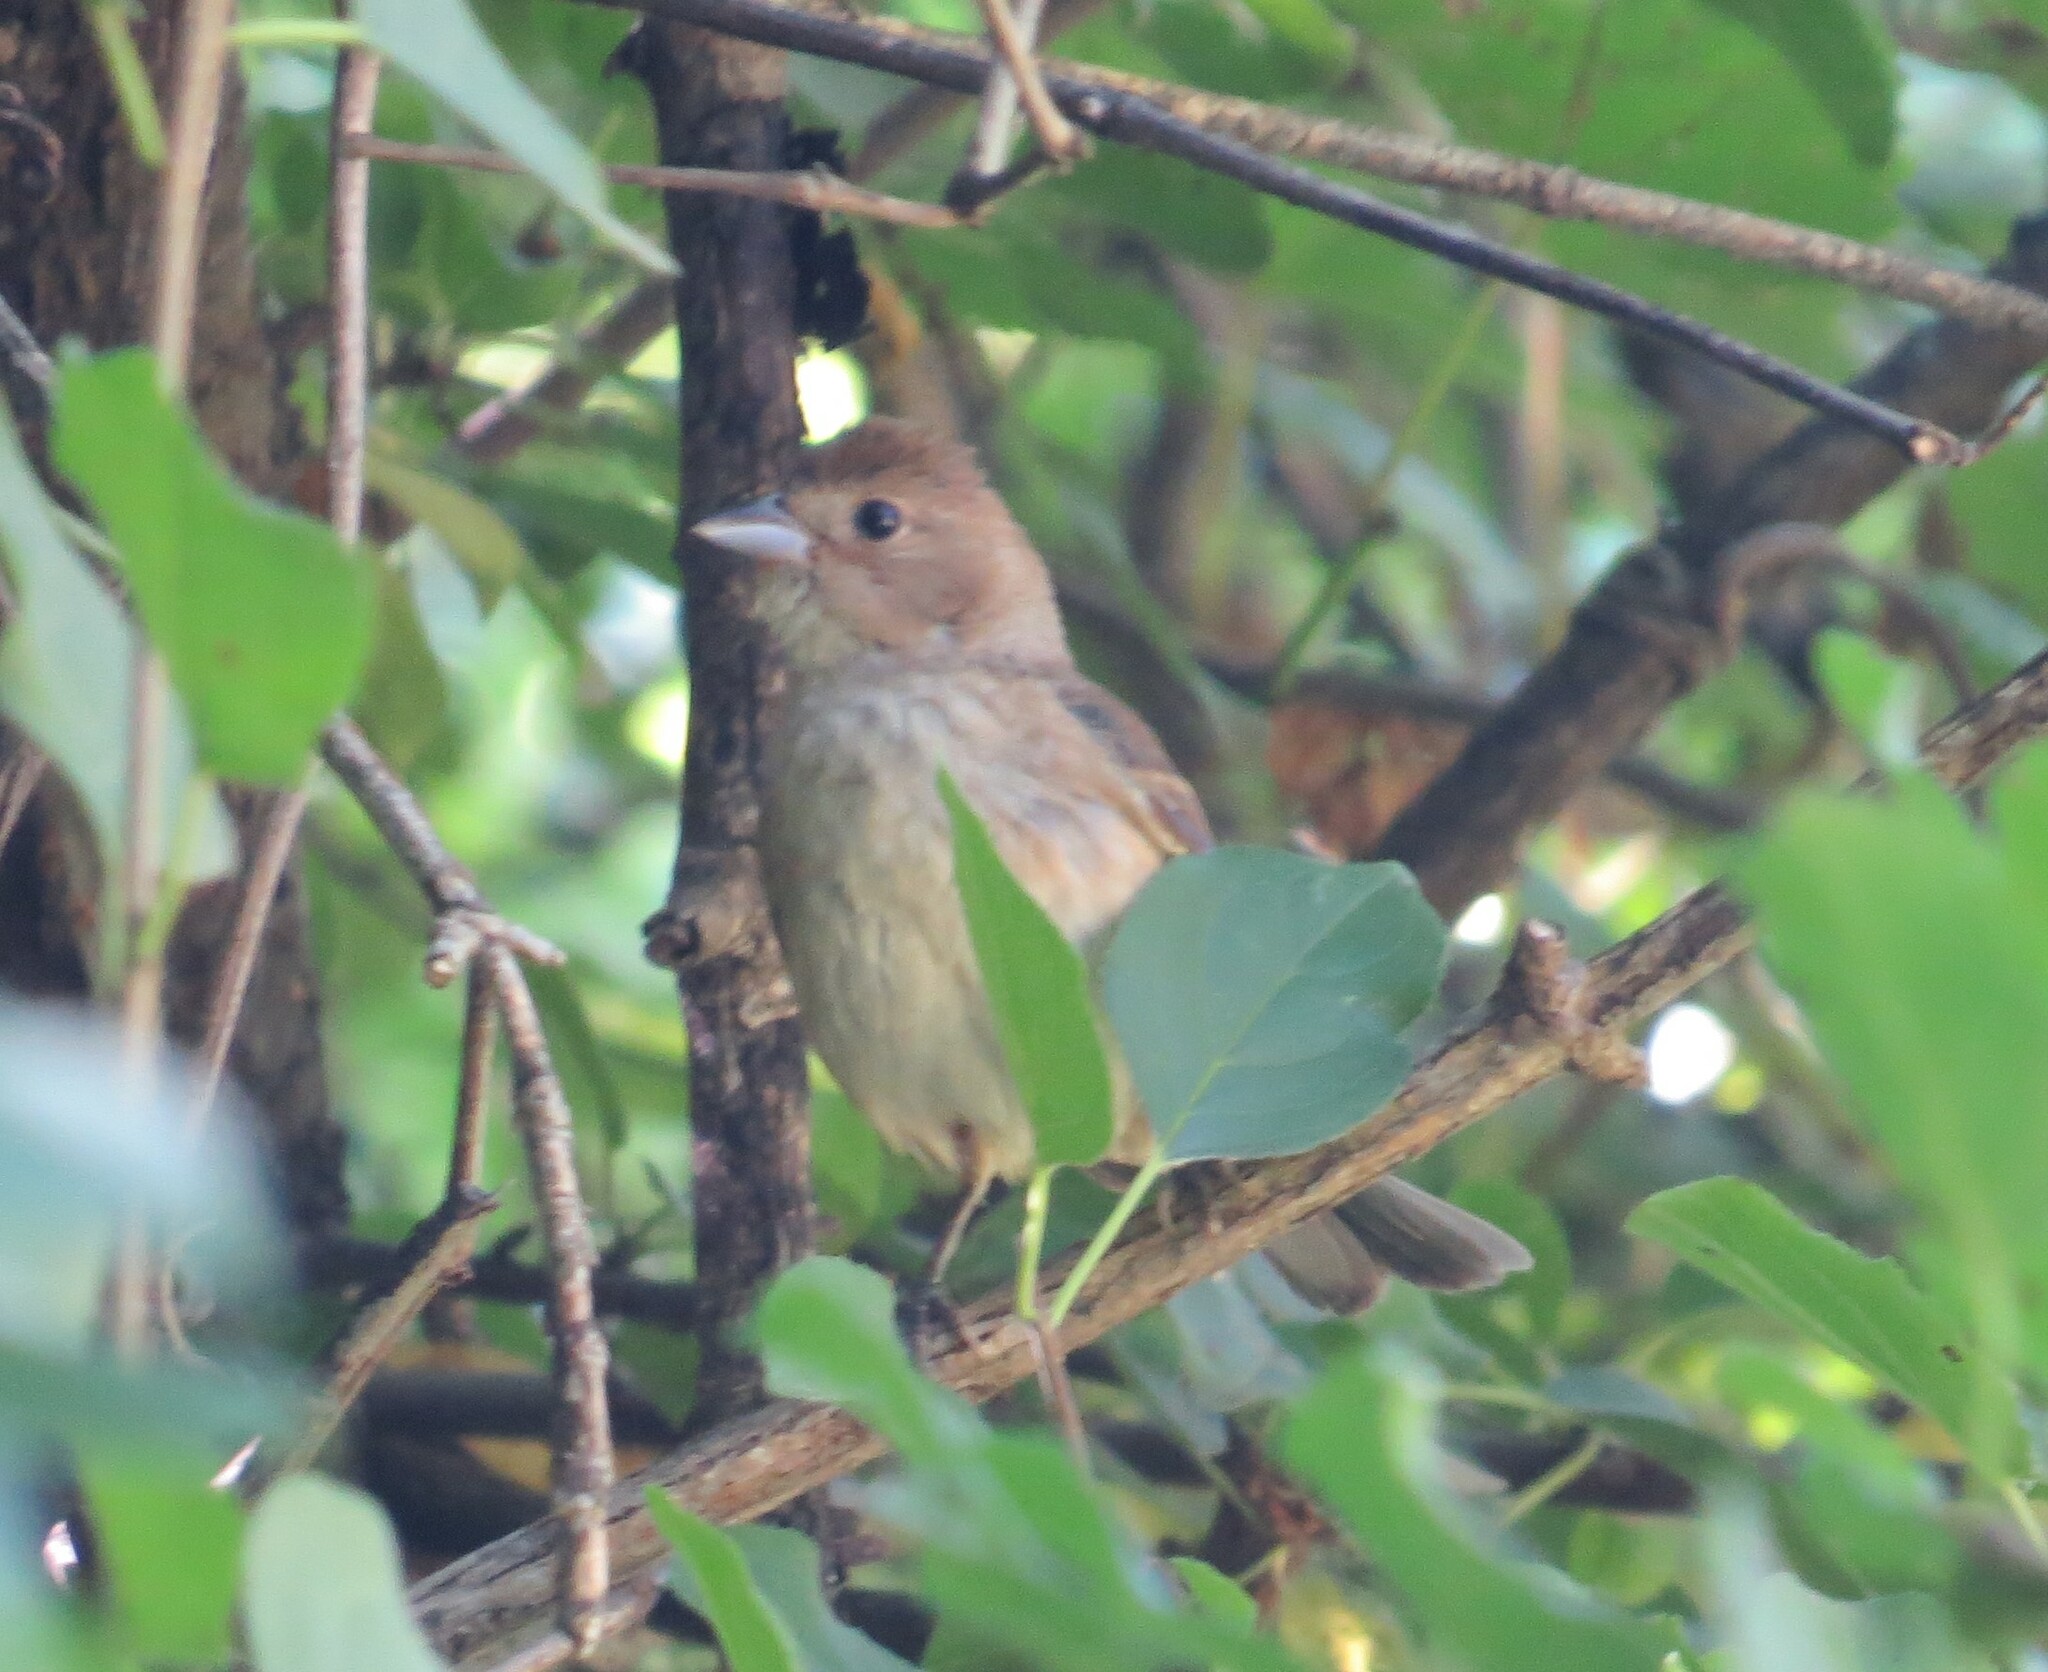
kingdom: Animalia
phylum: Chordata
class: Aves
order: Passeriformes
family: Cardinalidae
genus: Passerina
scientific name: Passerina cyanea
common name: Indigo bunting
